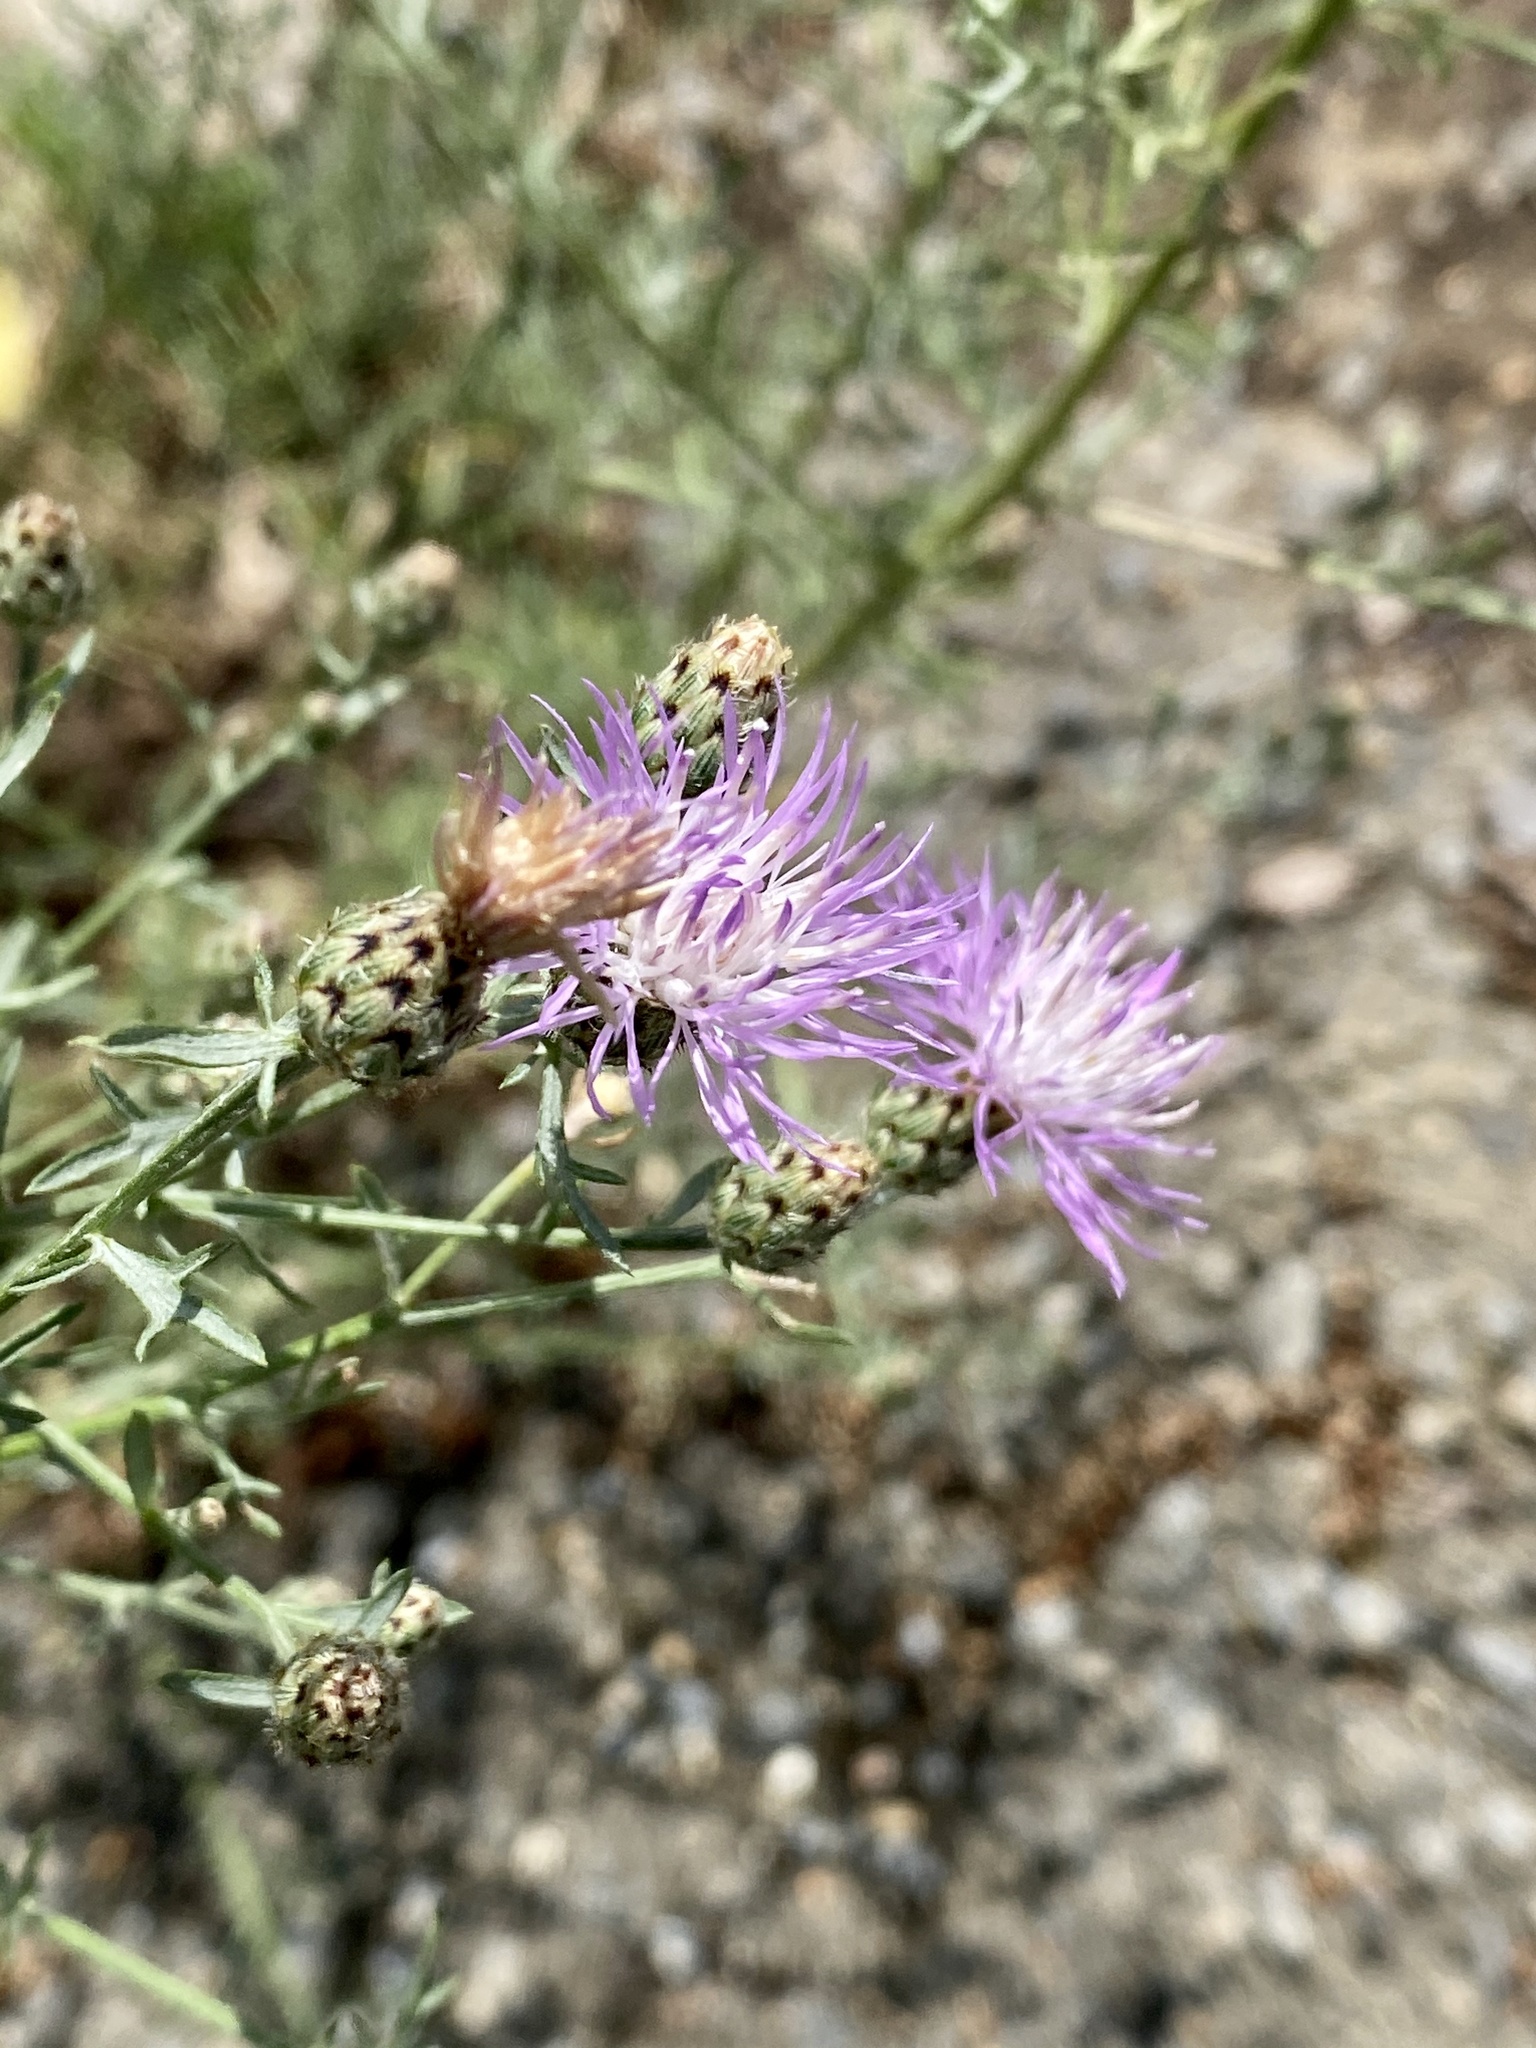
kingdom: Plantae
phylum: Tracheophyta
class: Magnoliopsida
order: Asterales
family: Asteraceae
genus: Centaurea
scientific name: Centaurea stoebe
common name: Spotted knapweed
